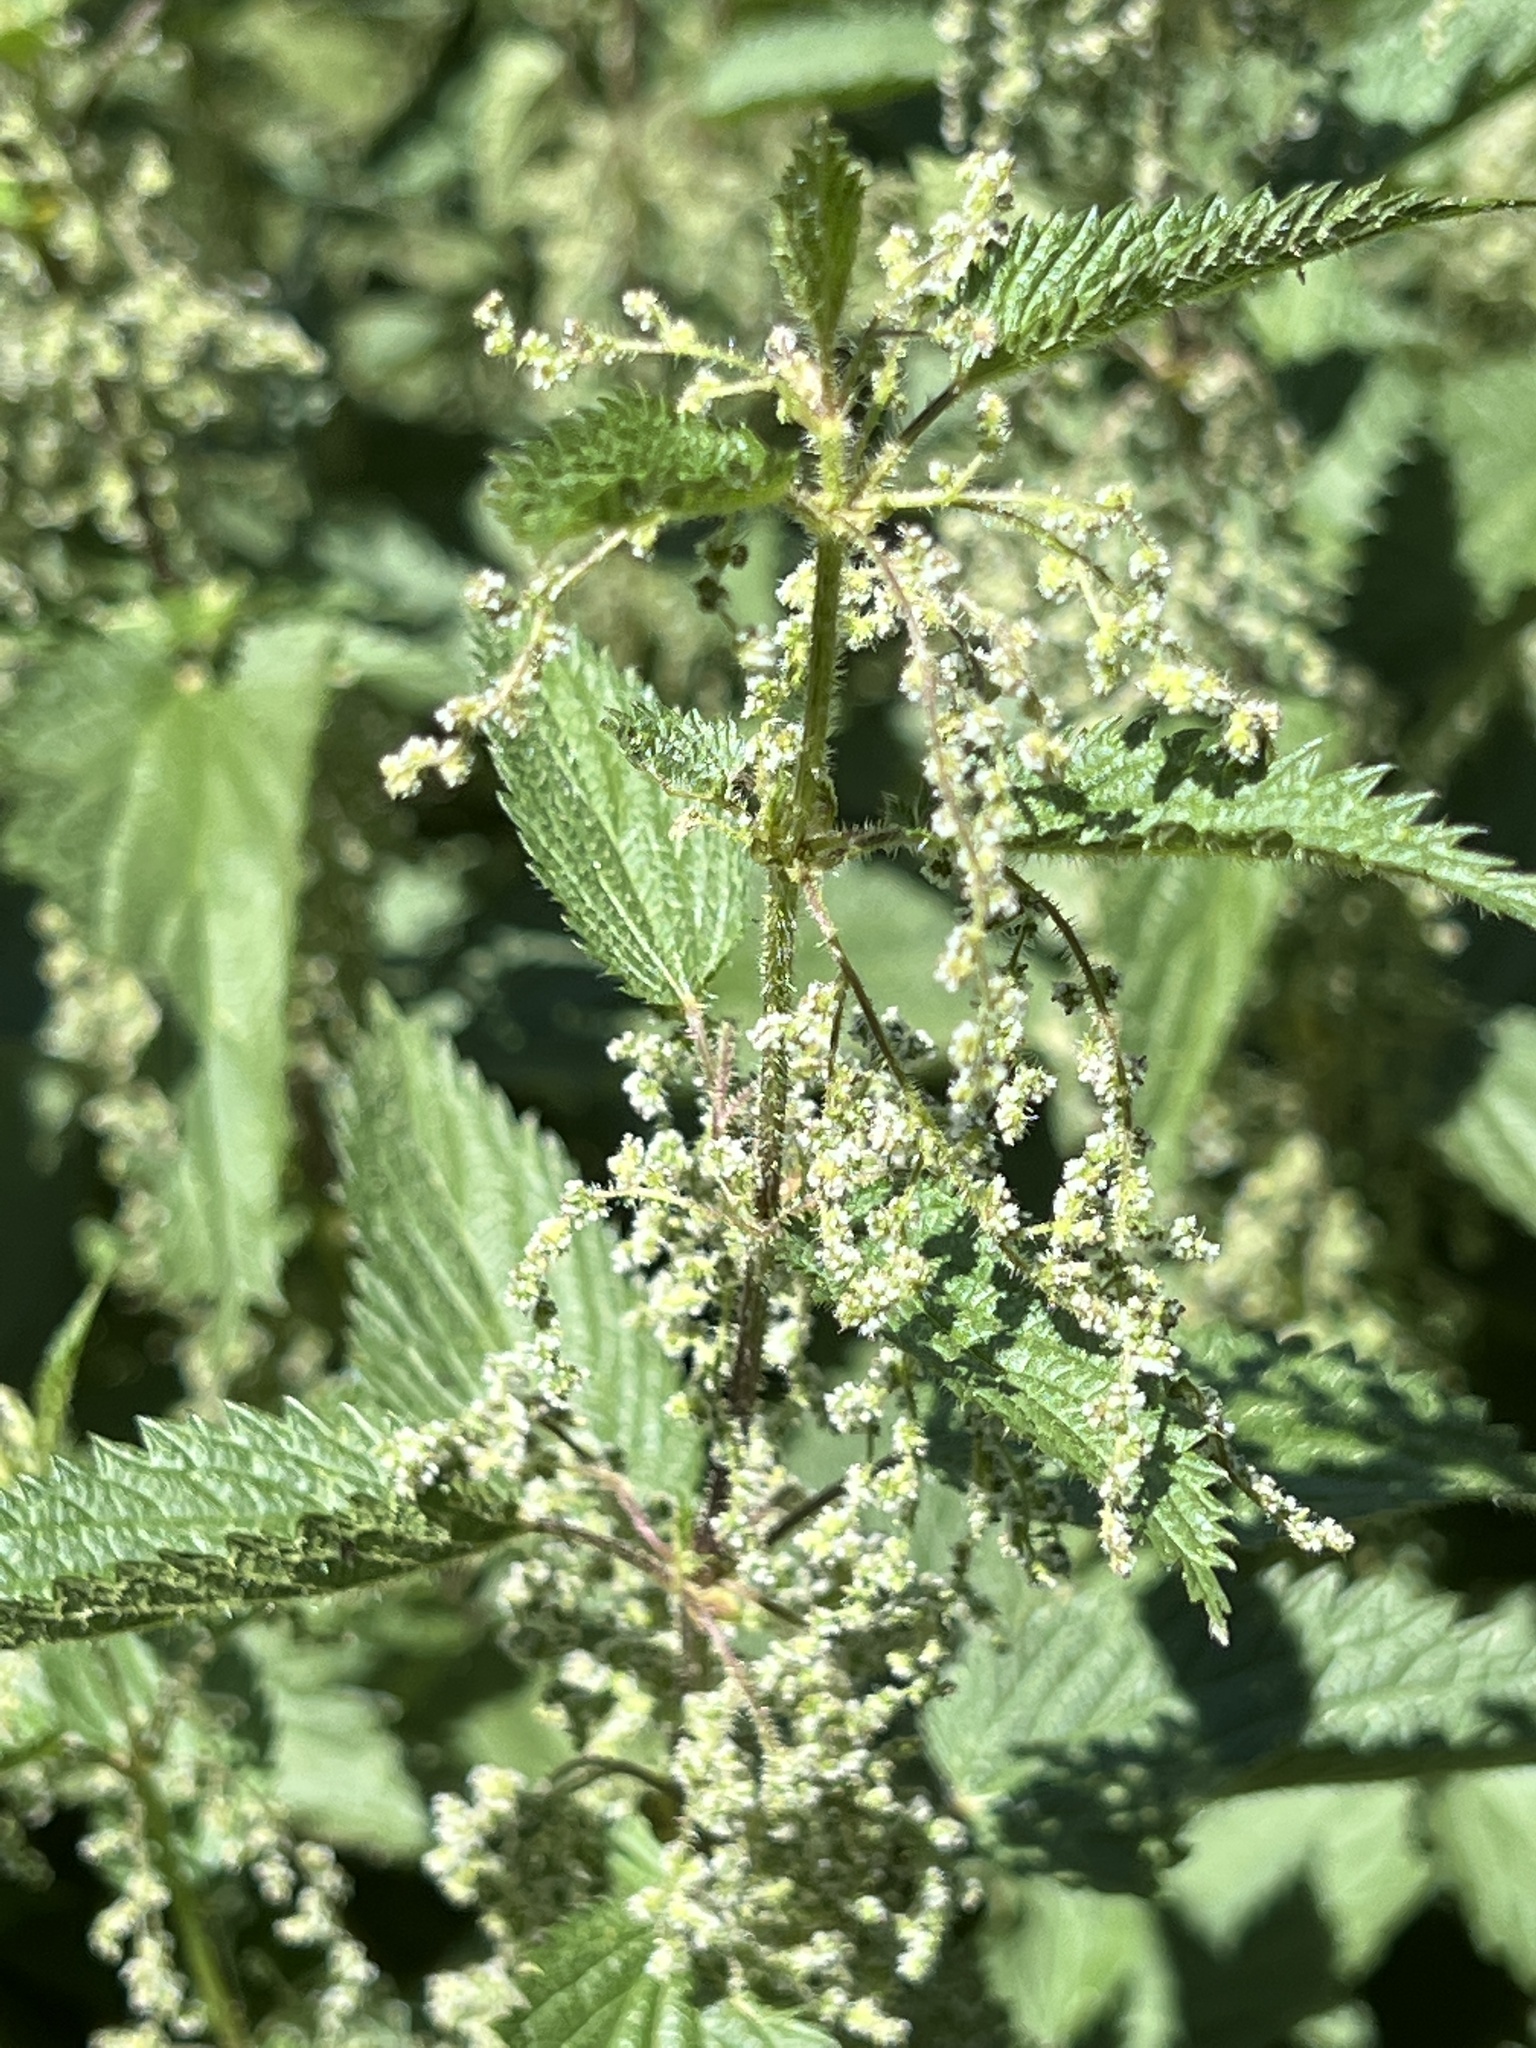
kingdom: Plantae
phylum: Tracheophyta
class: Magnoliopsida
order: Rosales
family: Urticaceae
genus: Urtica
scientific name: Urtica dioica
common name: Common nettle
